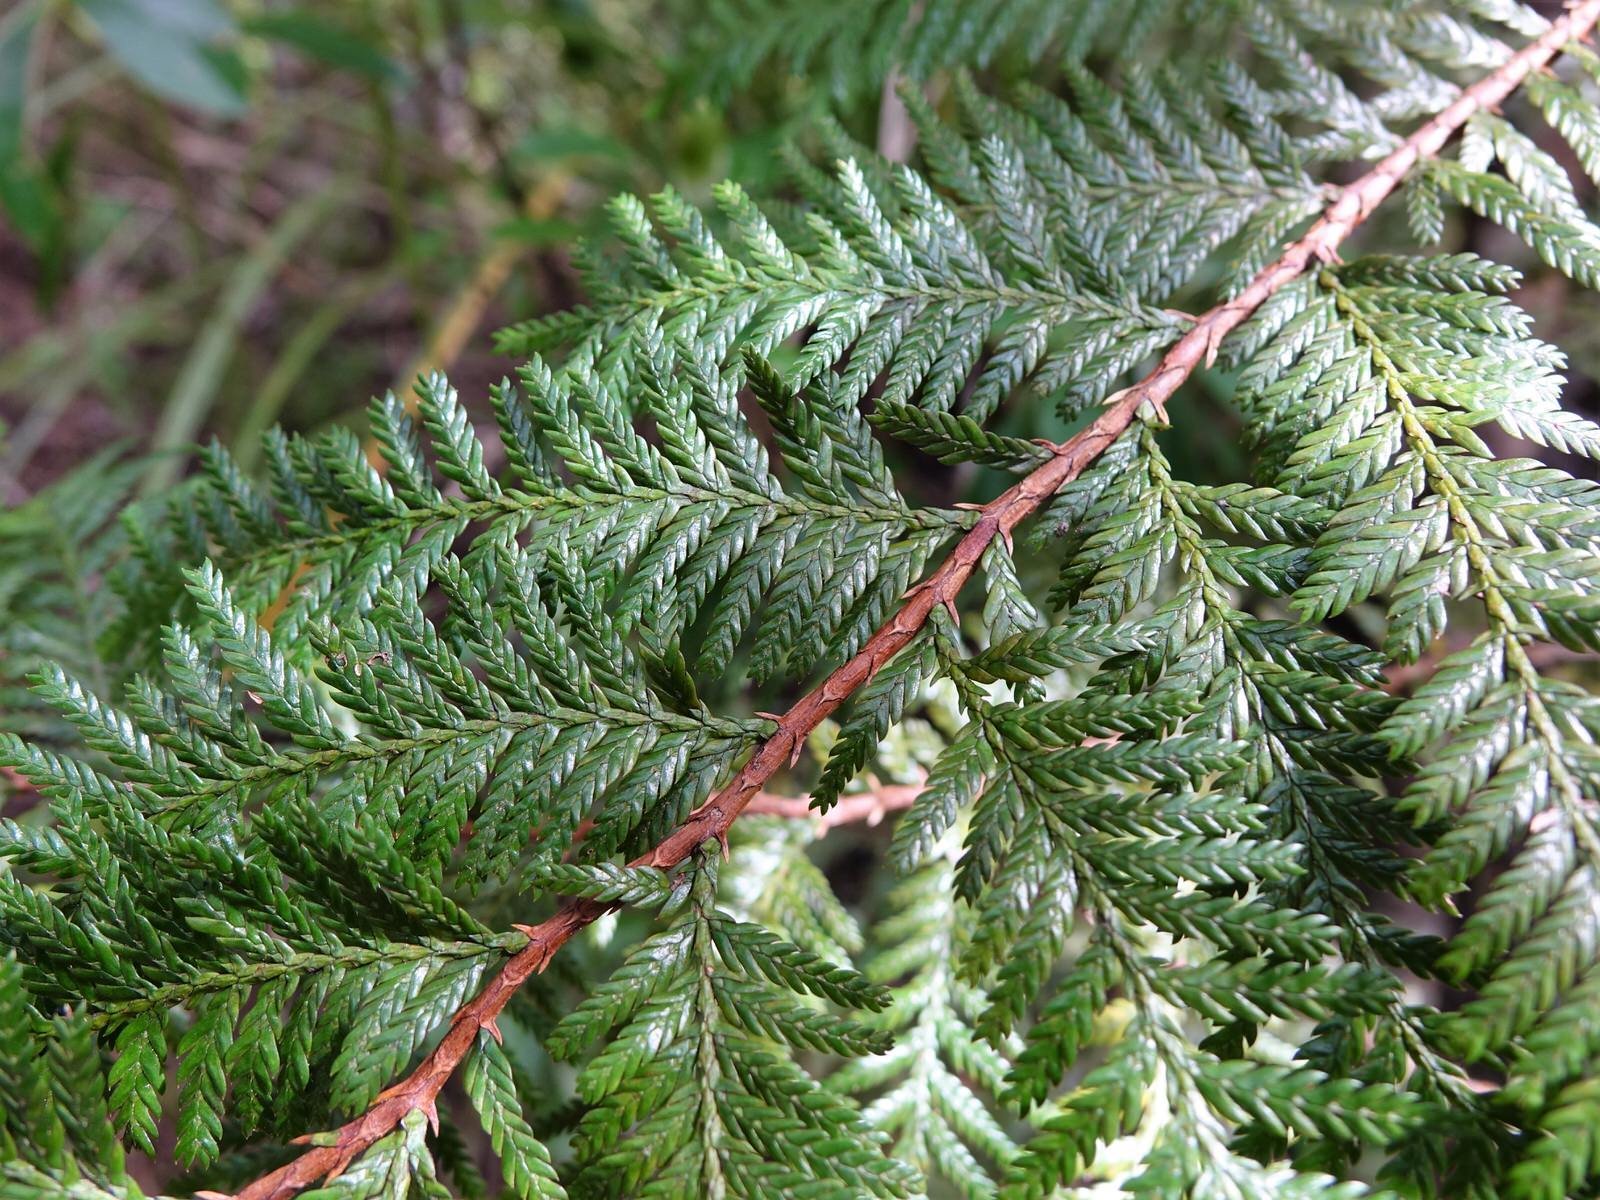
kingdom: Plantae
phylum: Tracheophyta
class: Pinopsida
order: Pinales
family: Cupressaceae
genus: Libocedrus
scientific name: Libocedrus plumosa
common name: New zealand cedar
